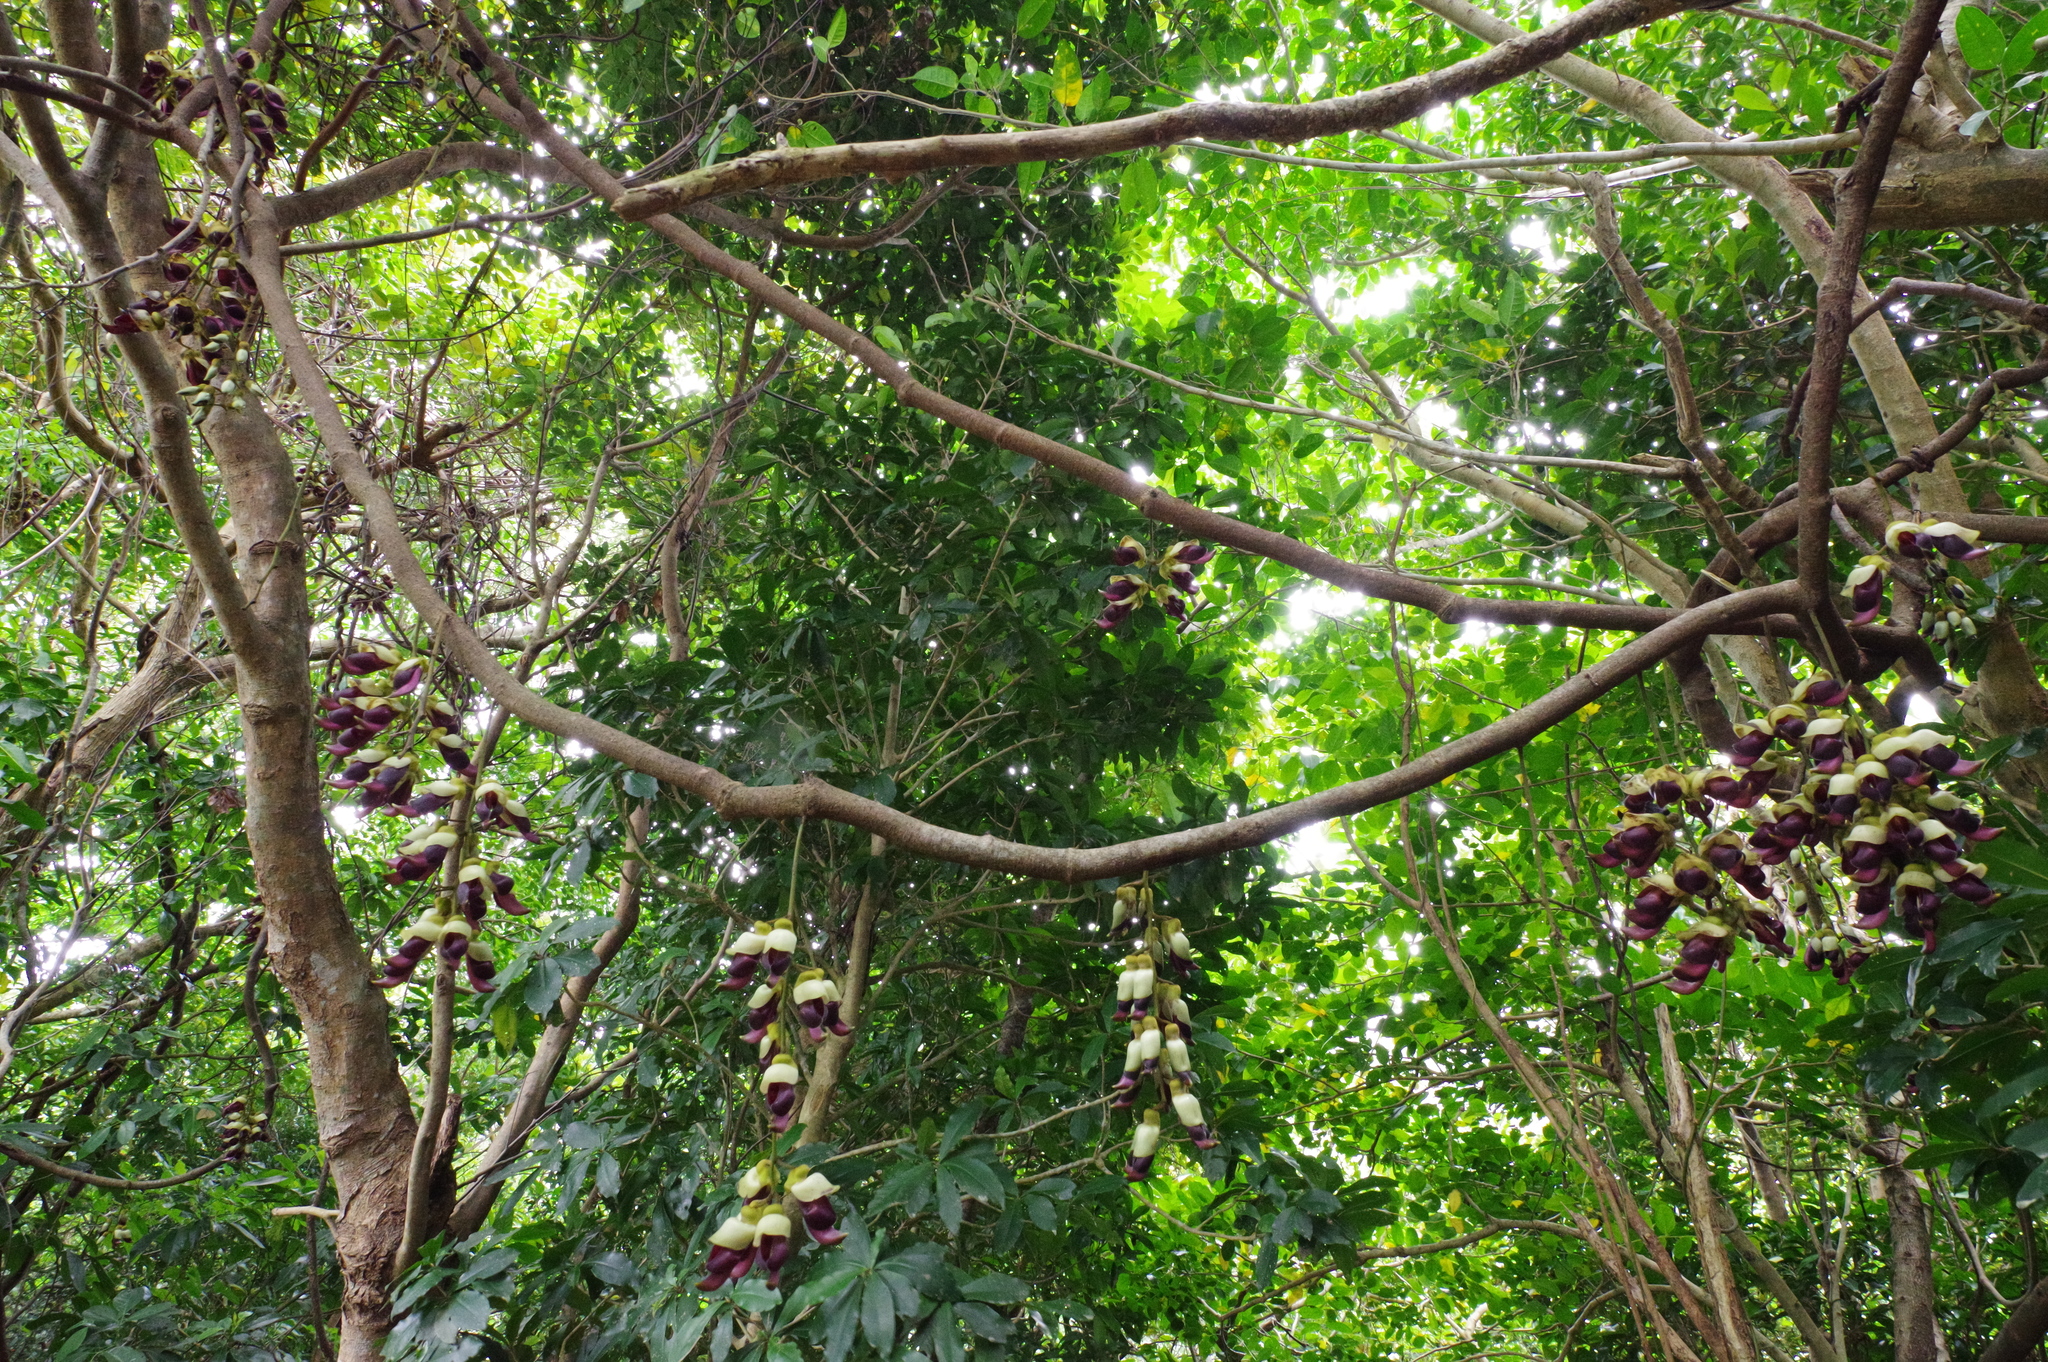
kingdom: Plantae
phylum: Tracheophyta
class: Magnoliopsida
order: Fabales
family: Fabaceae
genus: Mucuna
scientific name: Mucuna macrocarpa
